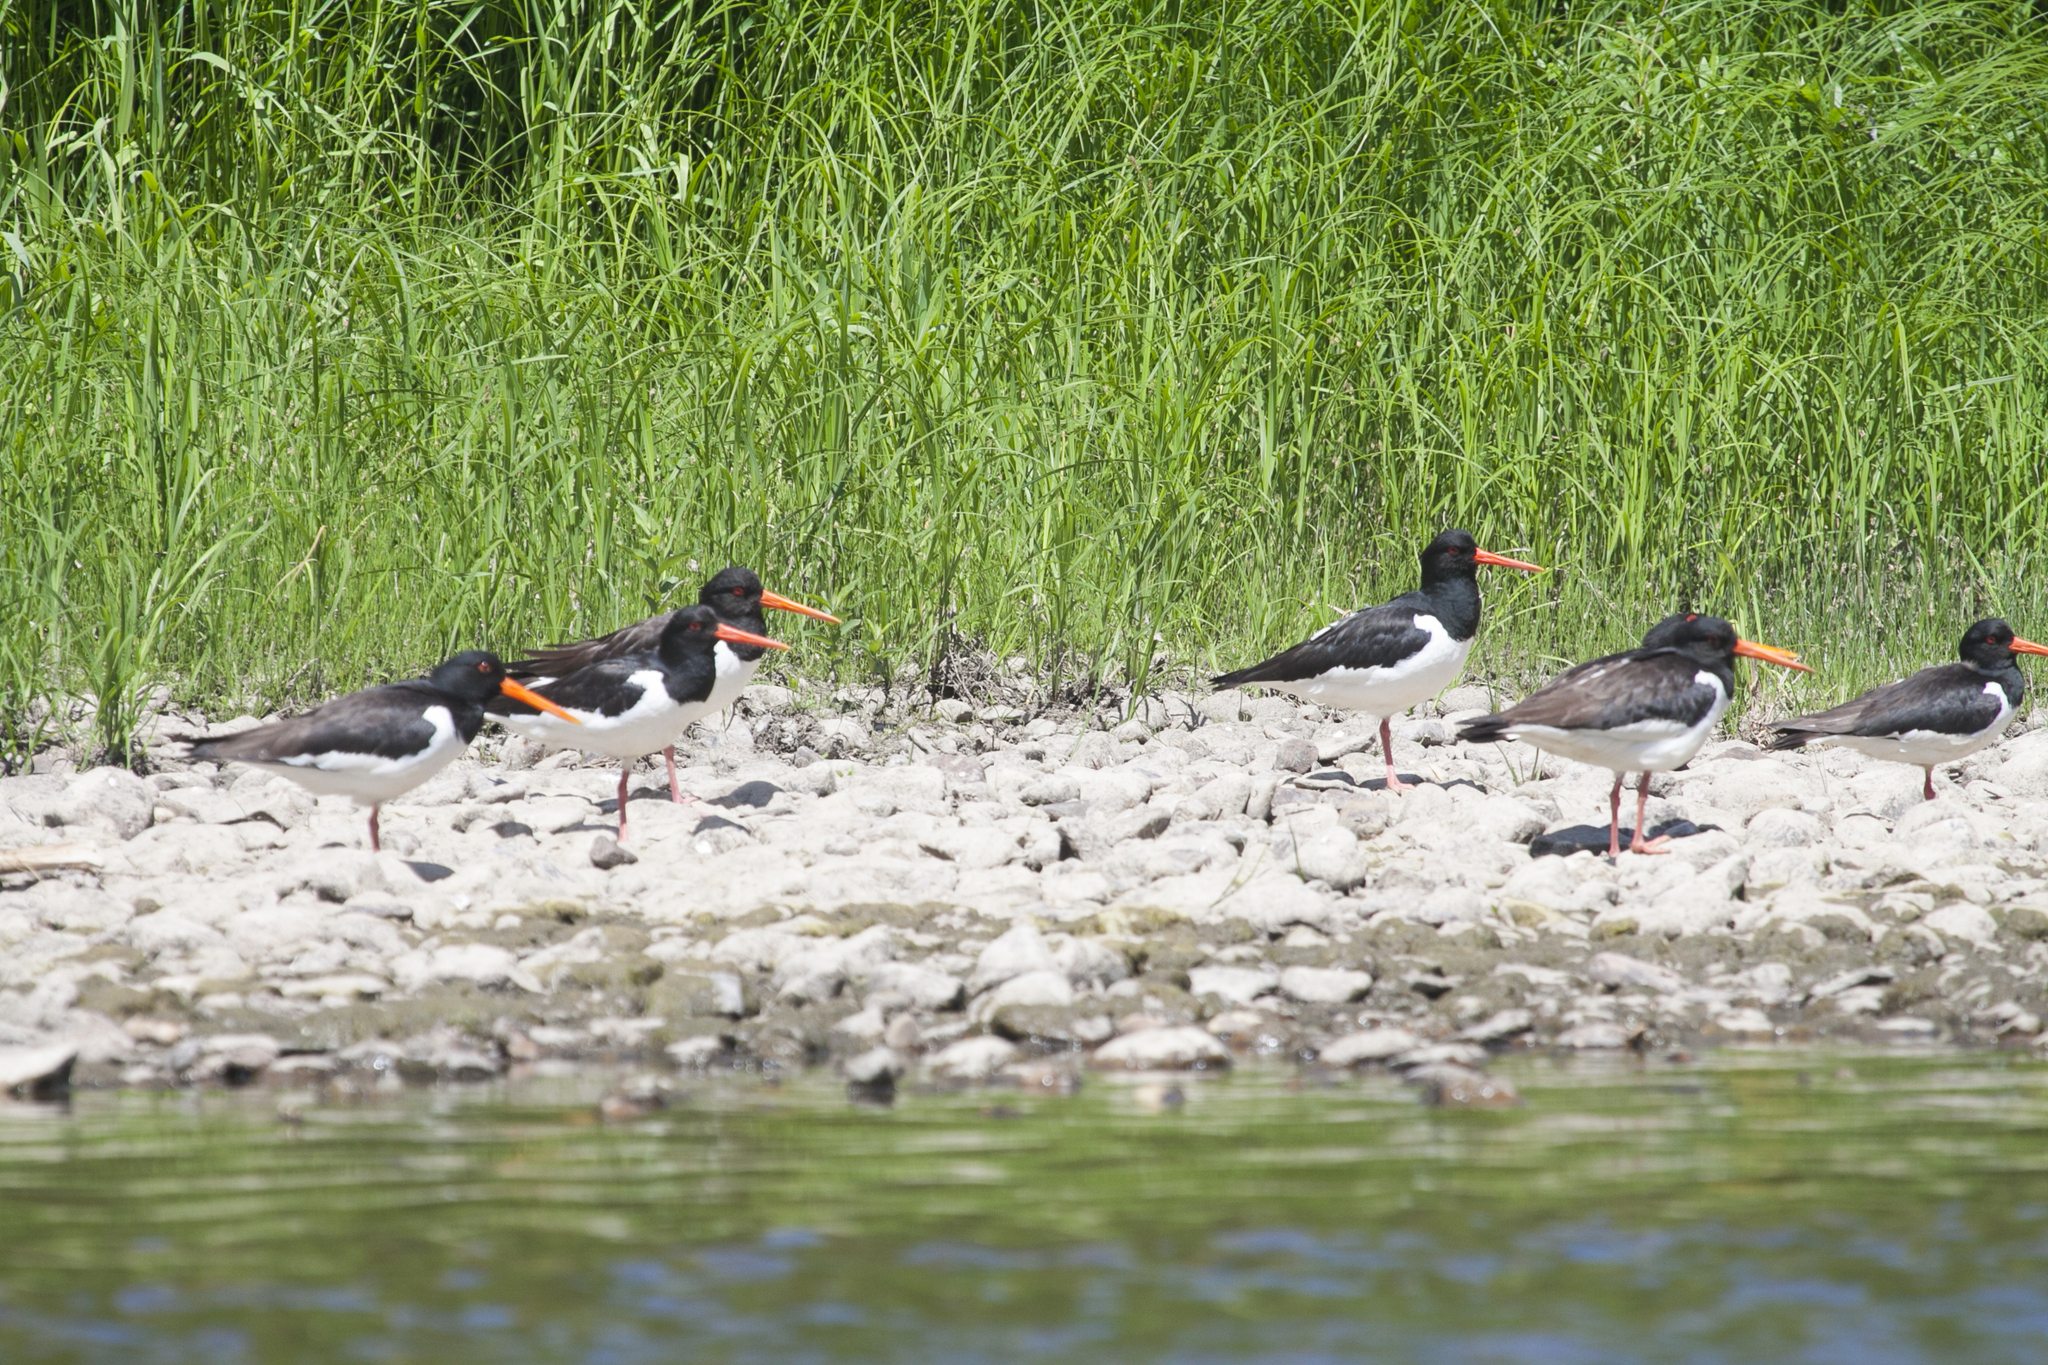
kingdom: Animalia
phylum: Chordata
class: Aves
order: Charadriiformes
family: Haematopodidae
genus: Haematopus
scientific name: Haematopus ostralegus
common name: Eurasian oystercatcher
